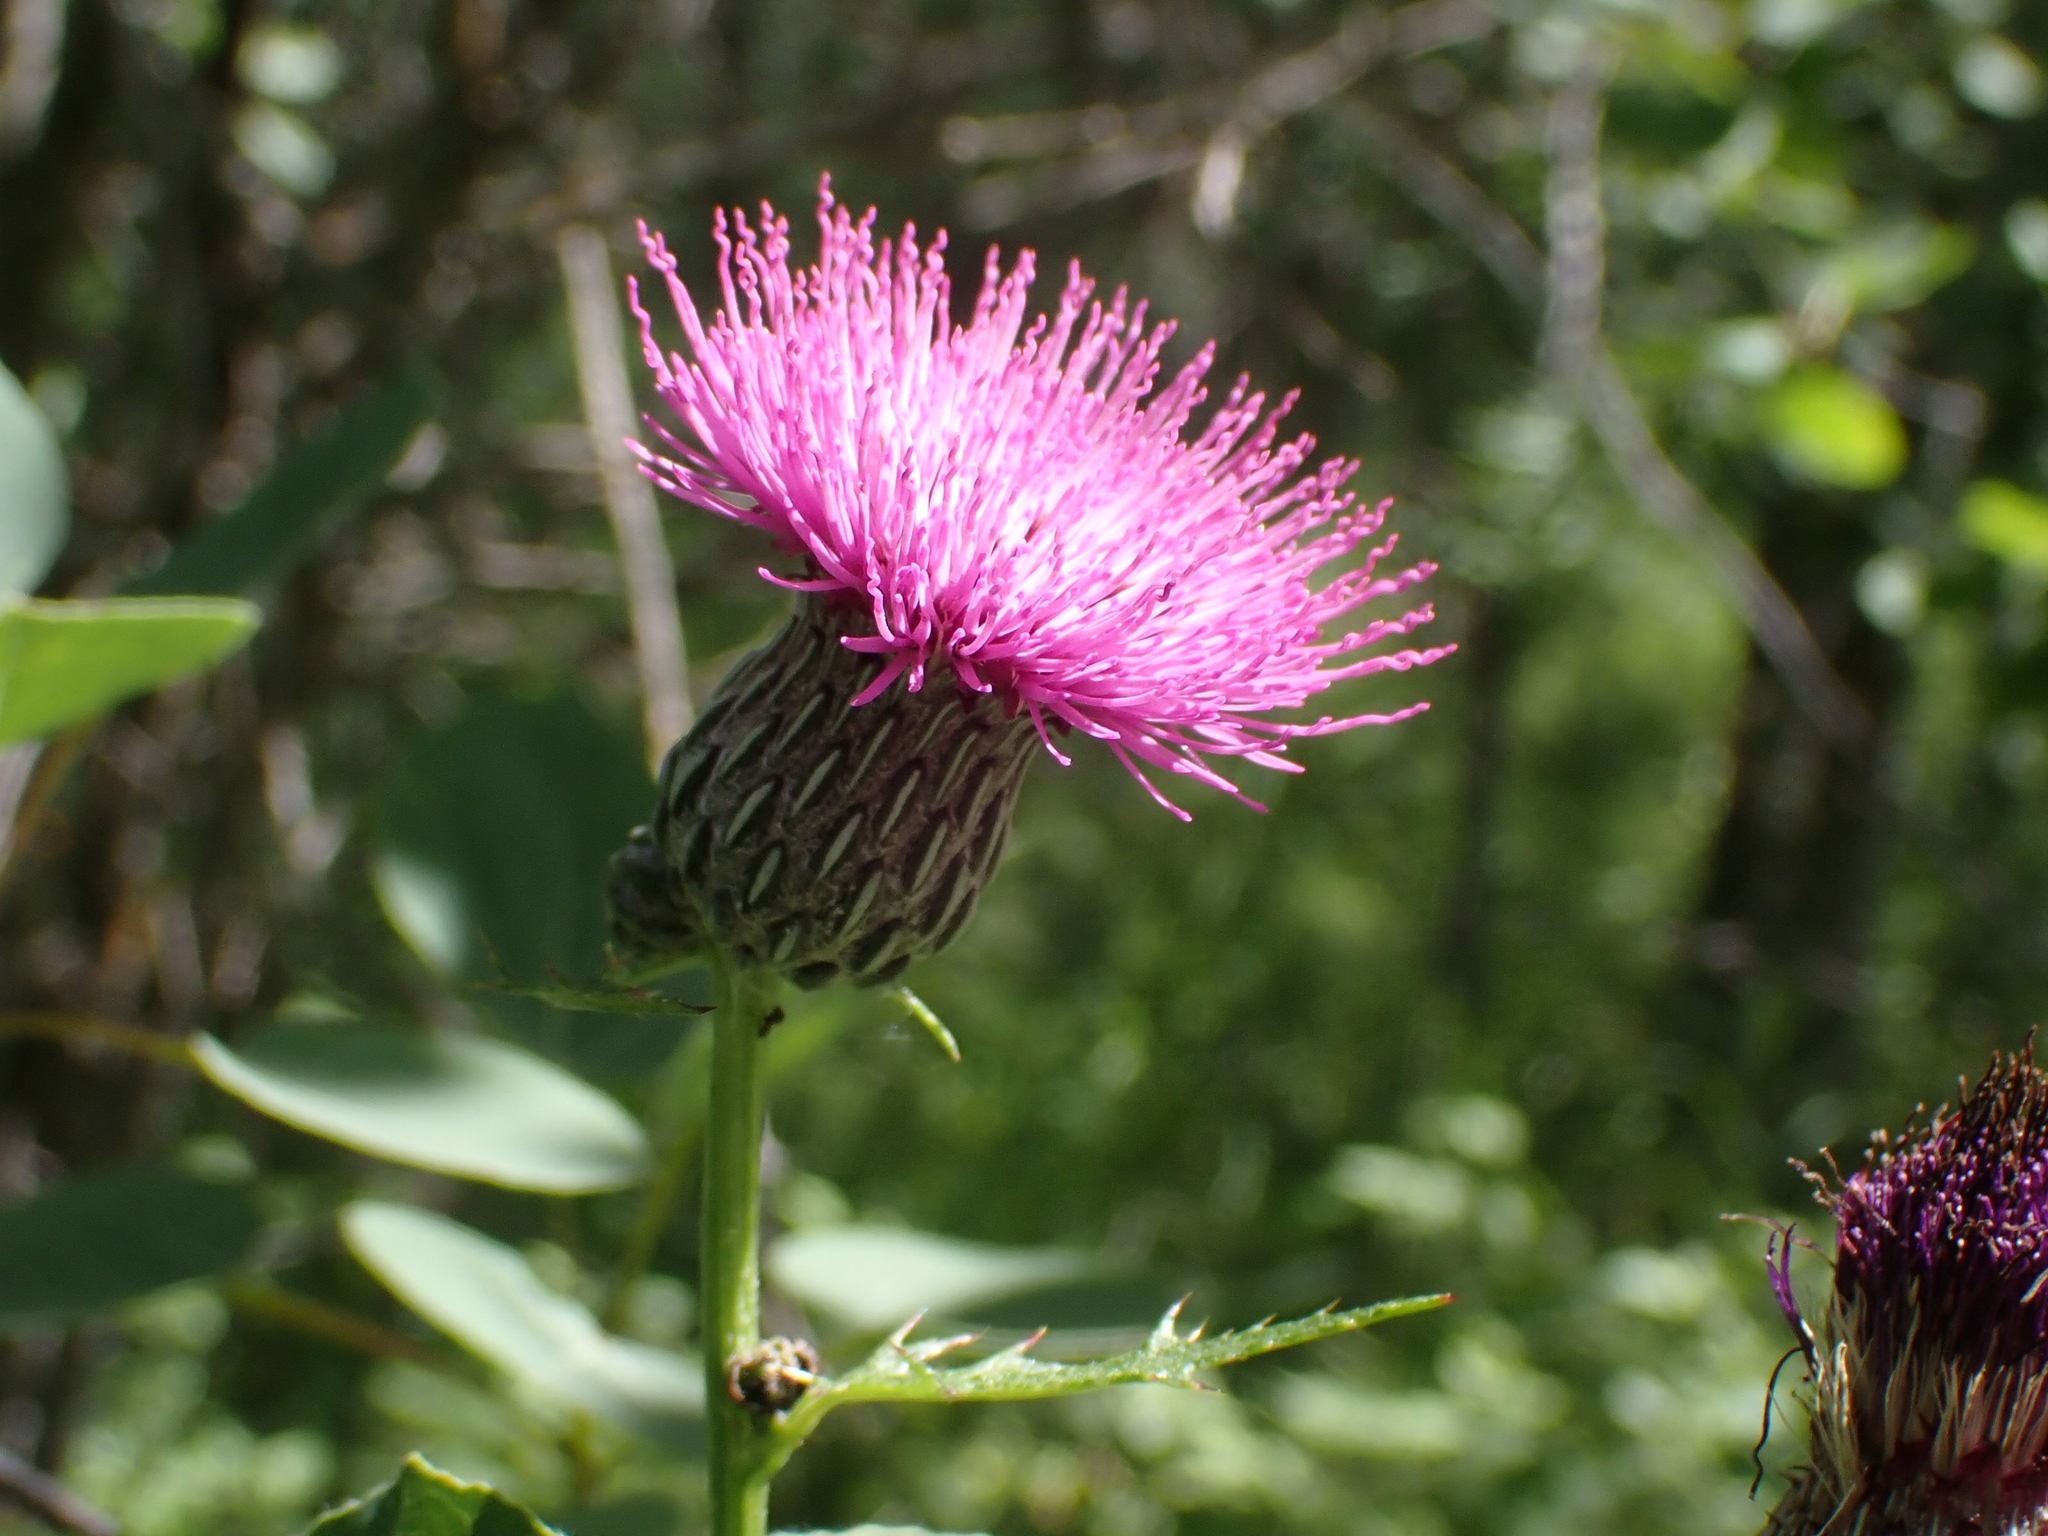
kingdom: Plantae
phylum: Tracheophyta
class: Magnoliopsida
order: Asterales
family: Asteraceae
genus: Cirsium
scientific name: Cirsium muticum
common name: Dunce-nettle
